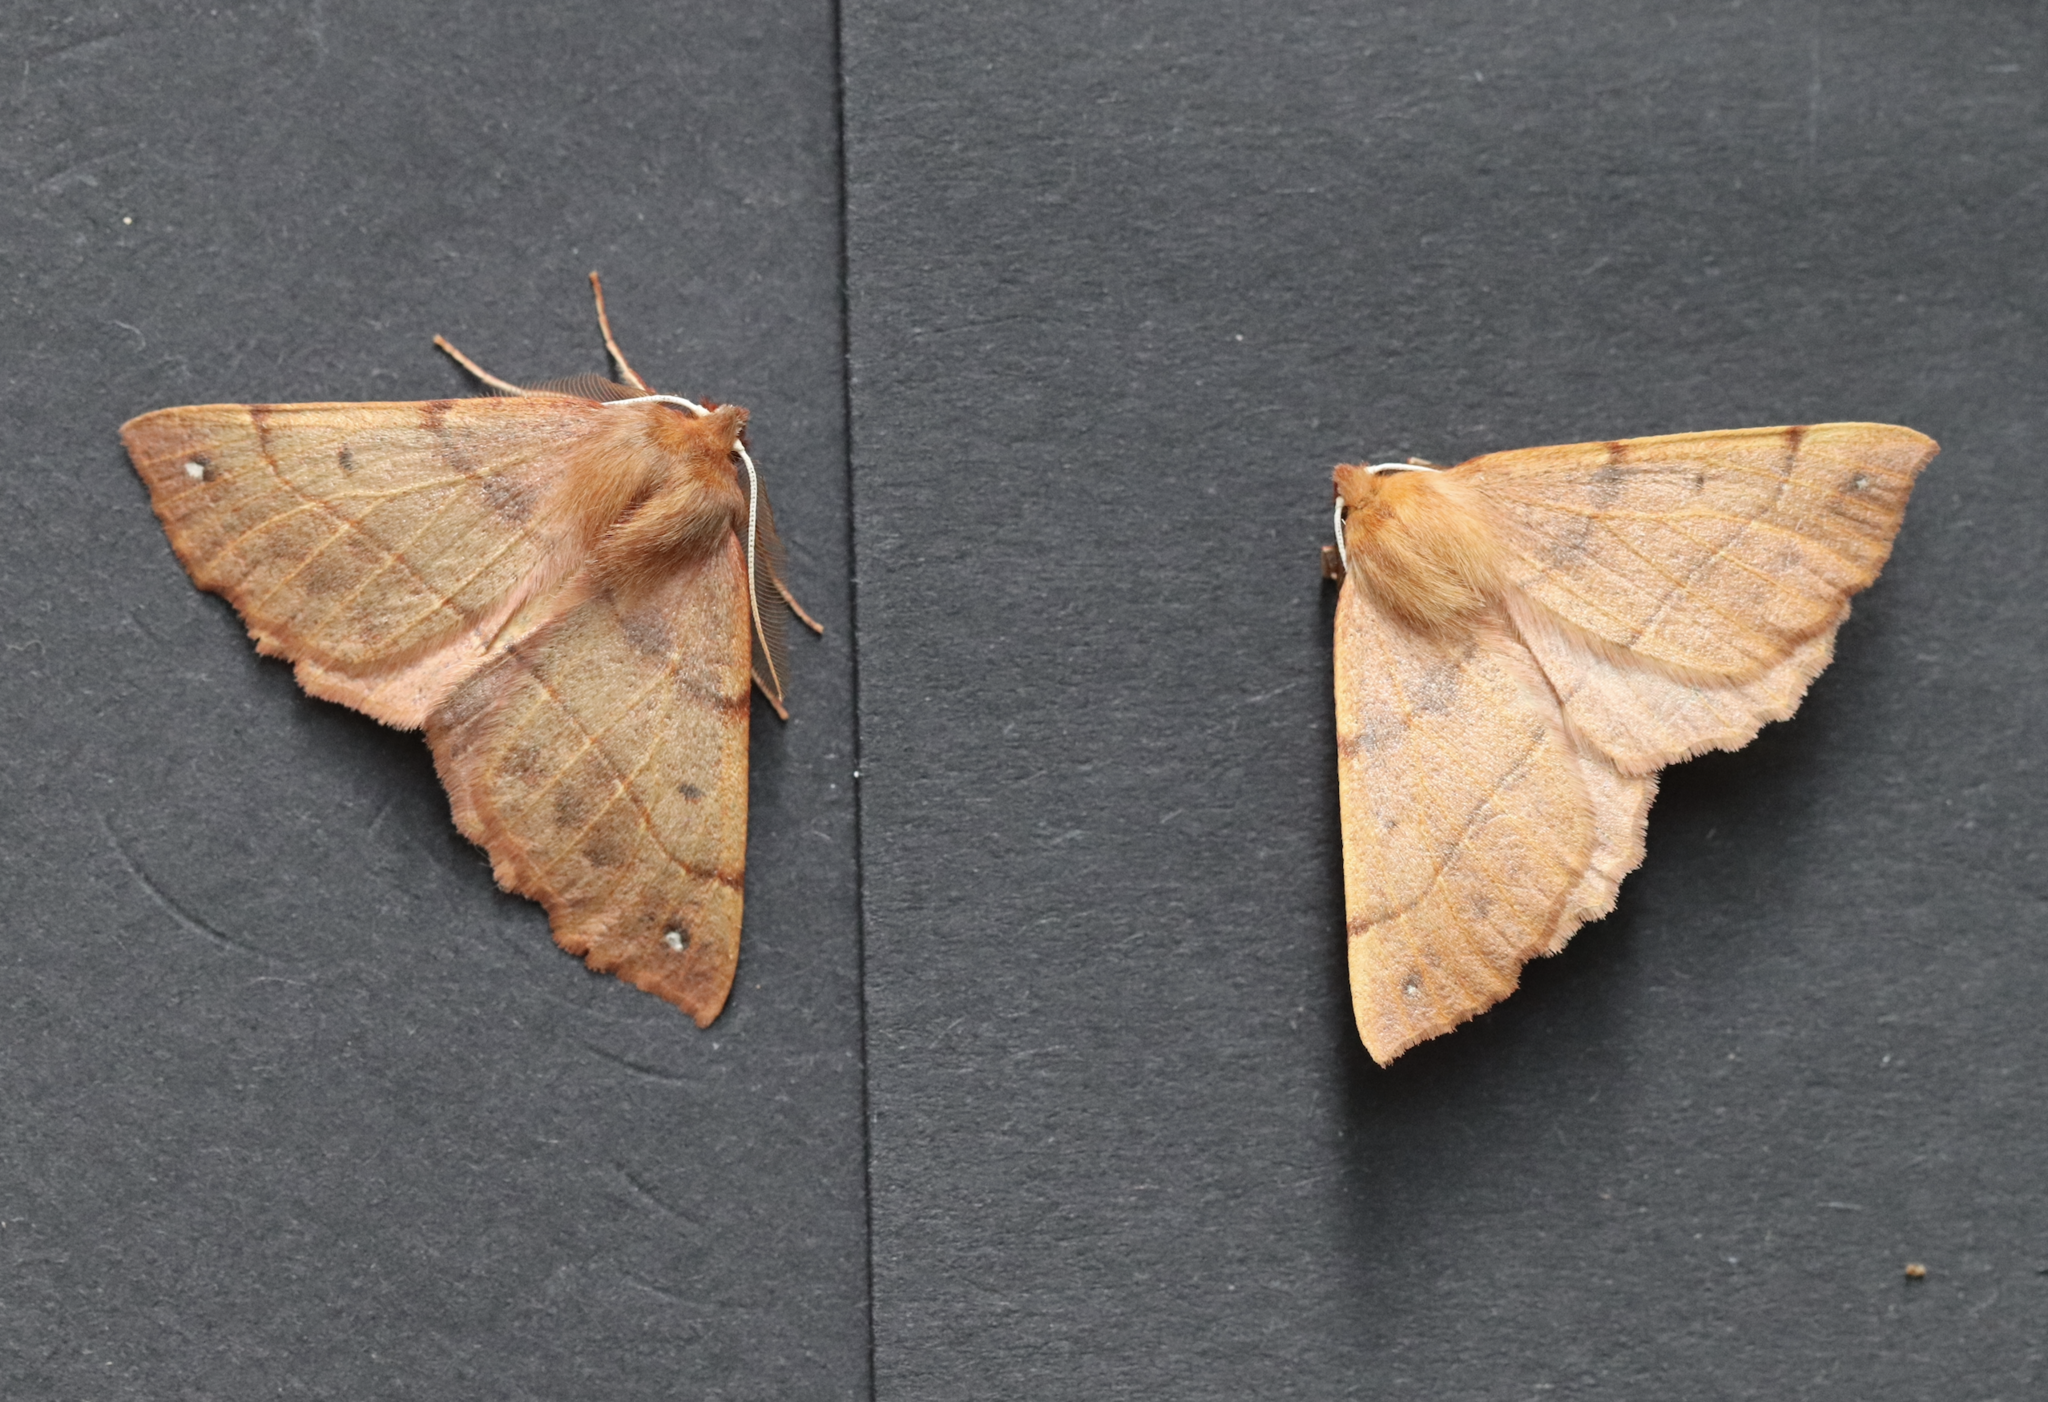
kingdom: Animalia
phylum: Arthropoda
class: Insecta
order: Lepidoptera
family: Geometridae
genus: Colotois
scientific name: Colotois pennaria
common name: Feathered thorn
